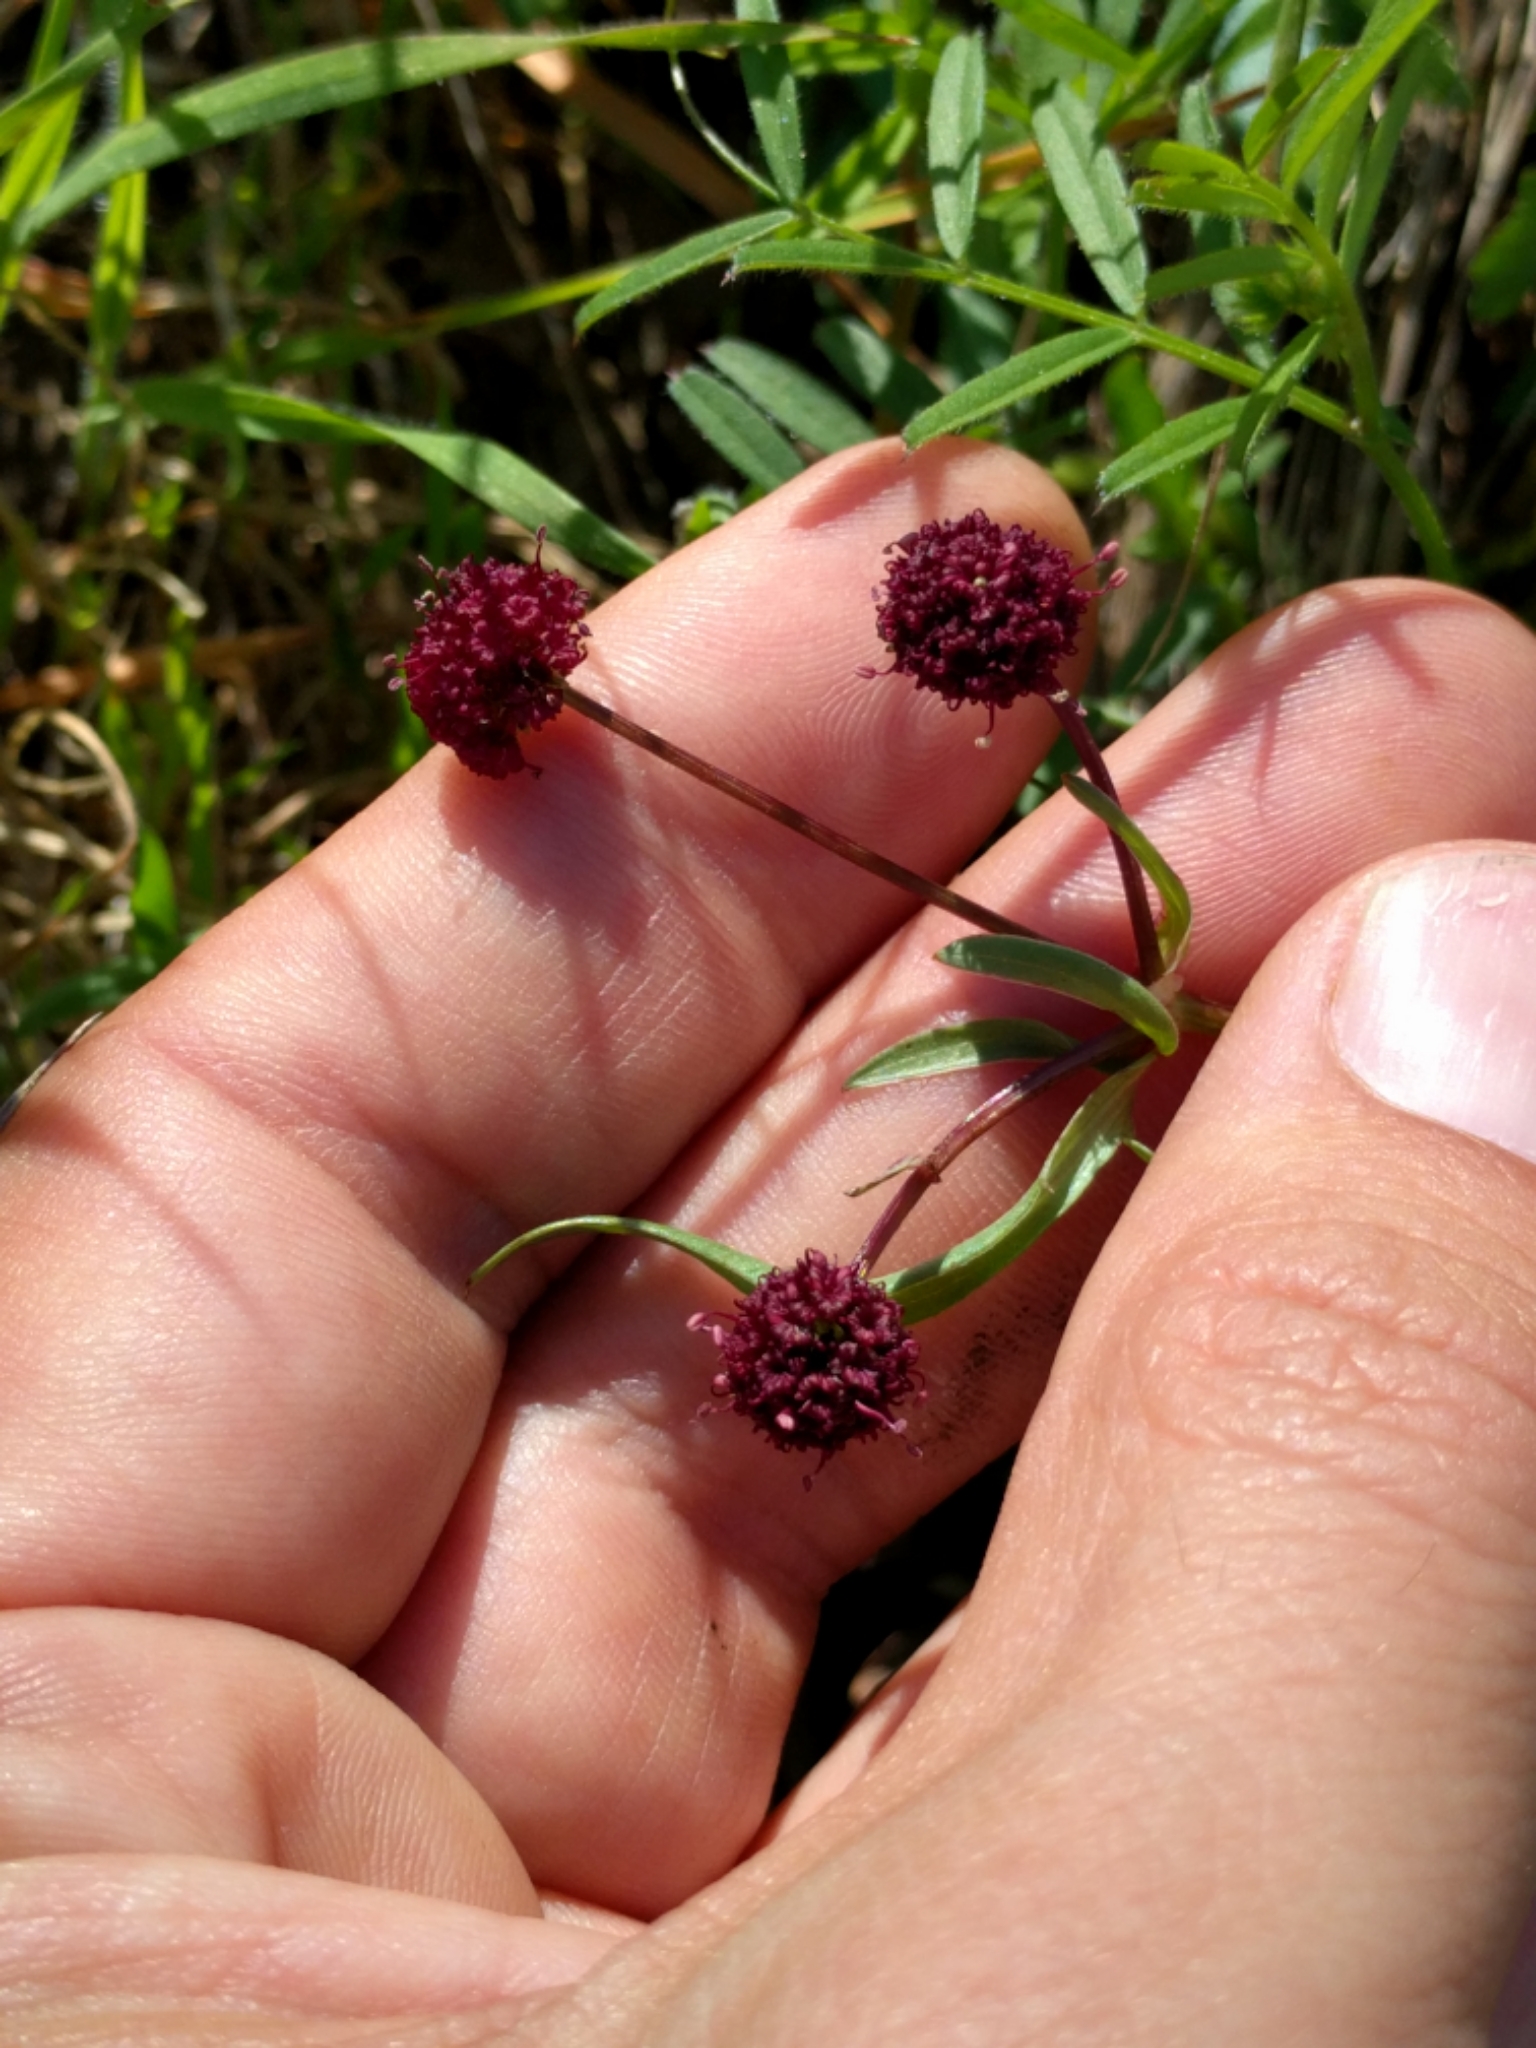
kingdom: Plantae
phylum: Tracheophyta
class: Magnoliopsida
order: Apiales
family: Apiaceae
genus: Sanicula
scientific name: Sanicula bipinnatifida
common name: Shoe-buttons
